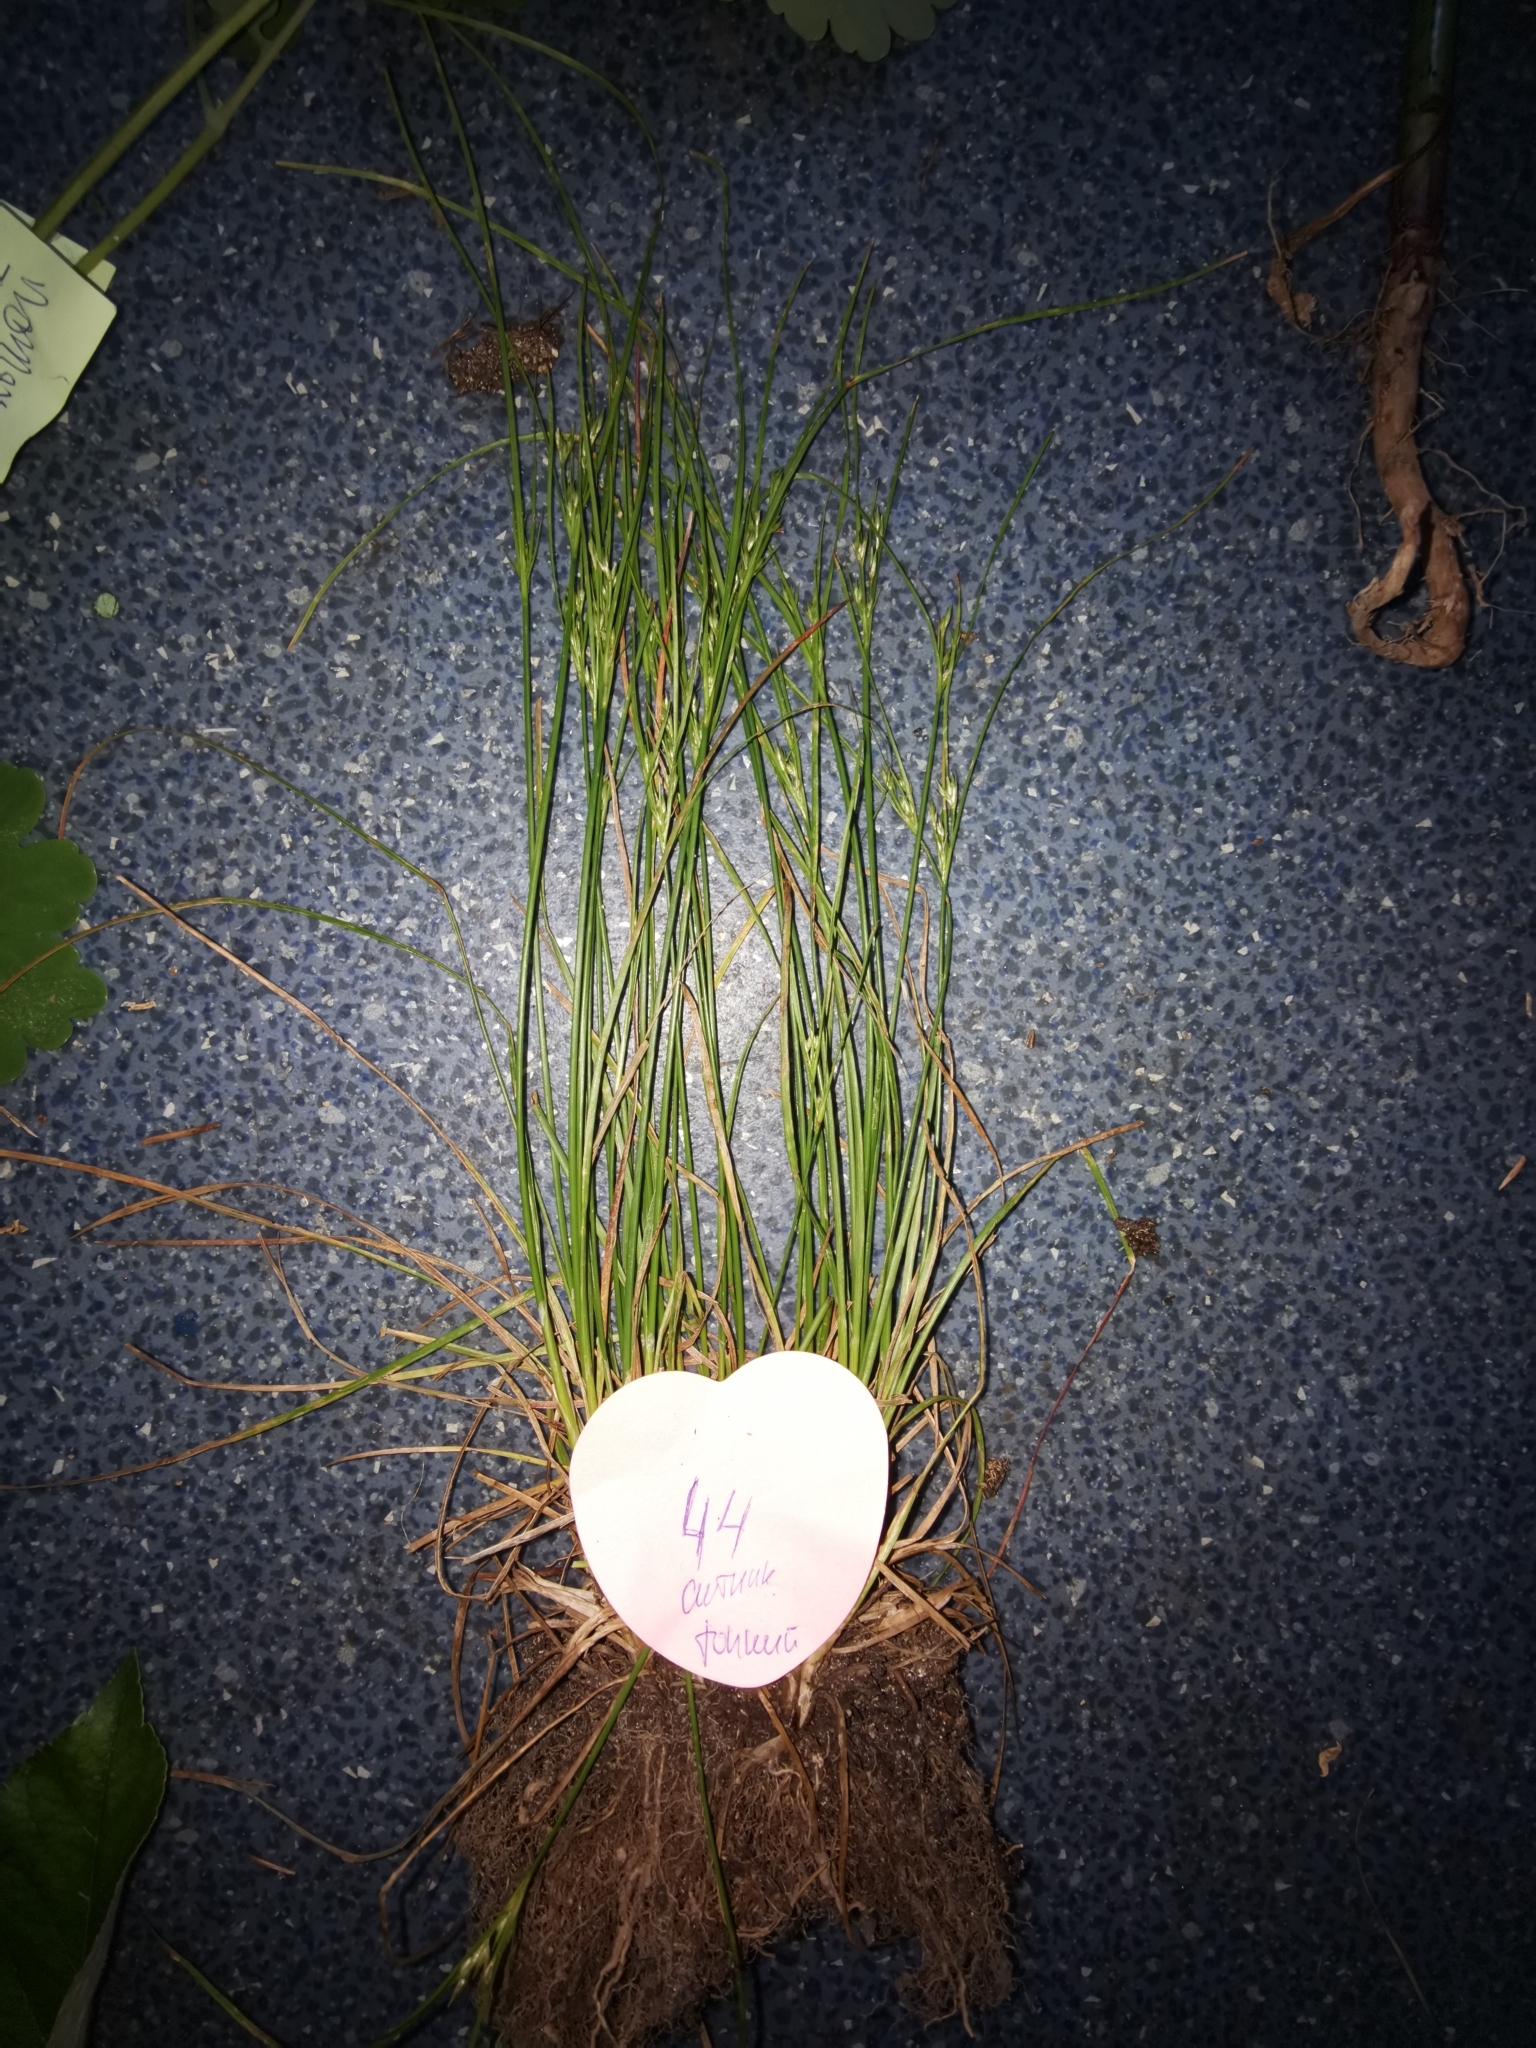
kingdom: Plantae
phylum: Tracheophyta
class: Liliopsida
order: Poales
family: Juncaceae
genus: Juncus
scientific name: Juncus tenuis
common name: Slender rush
